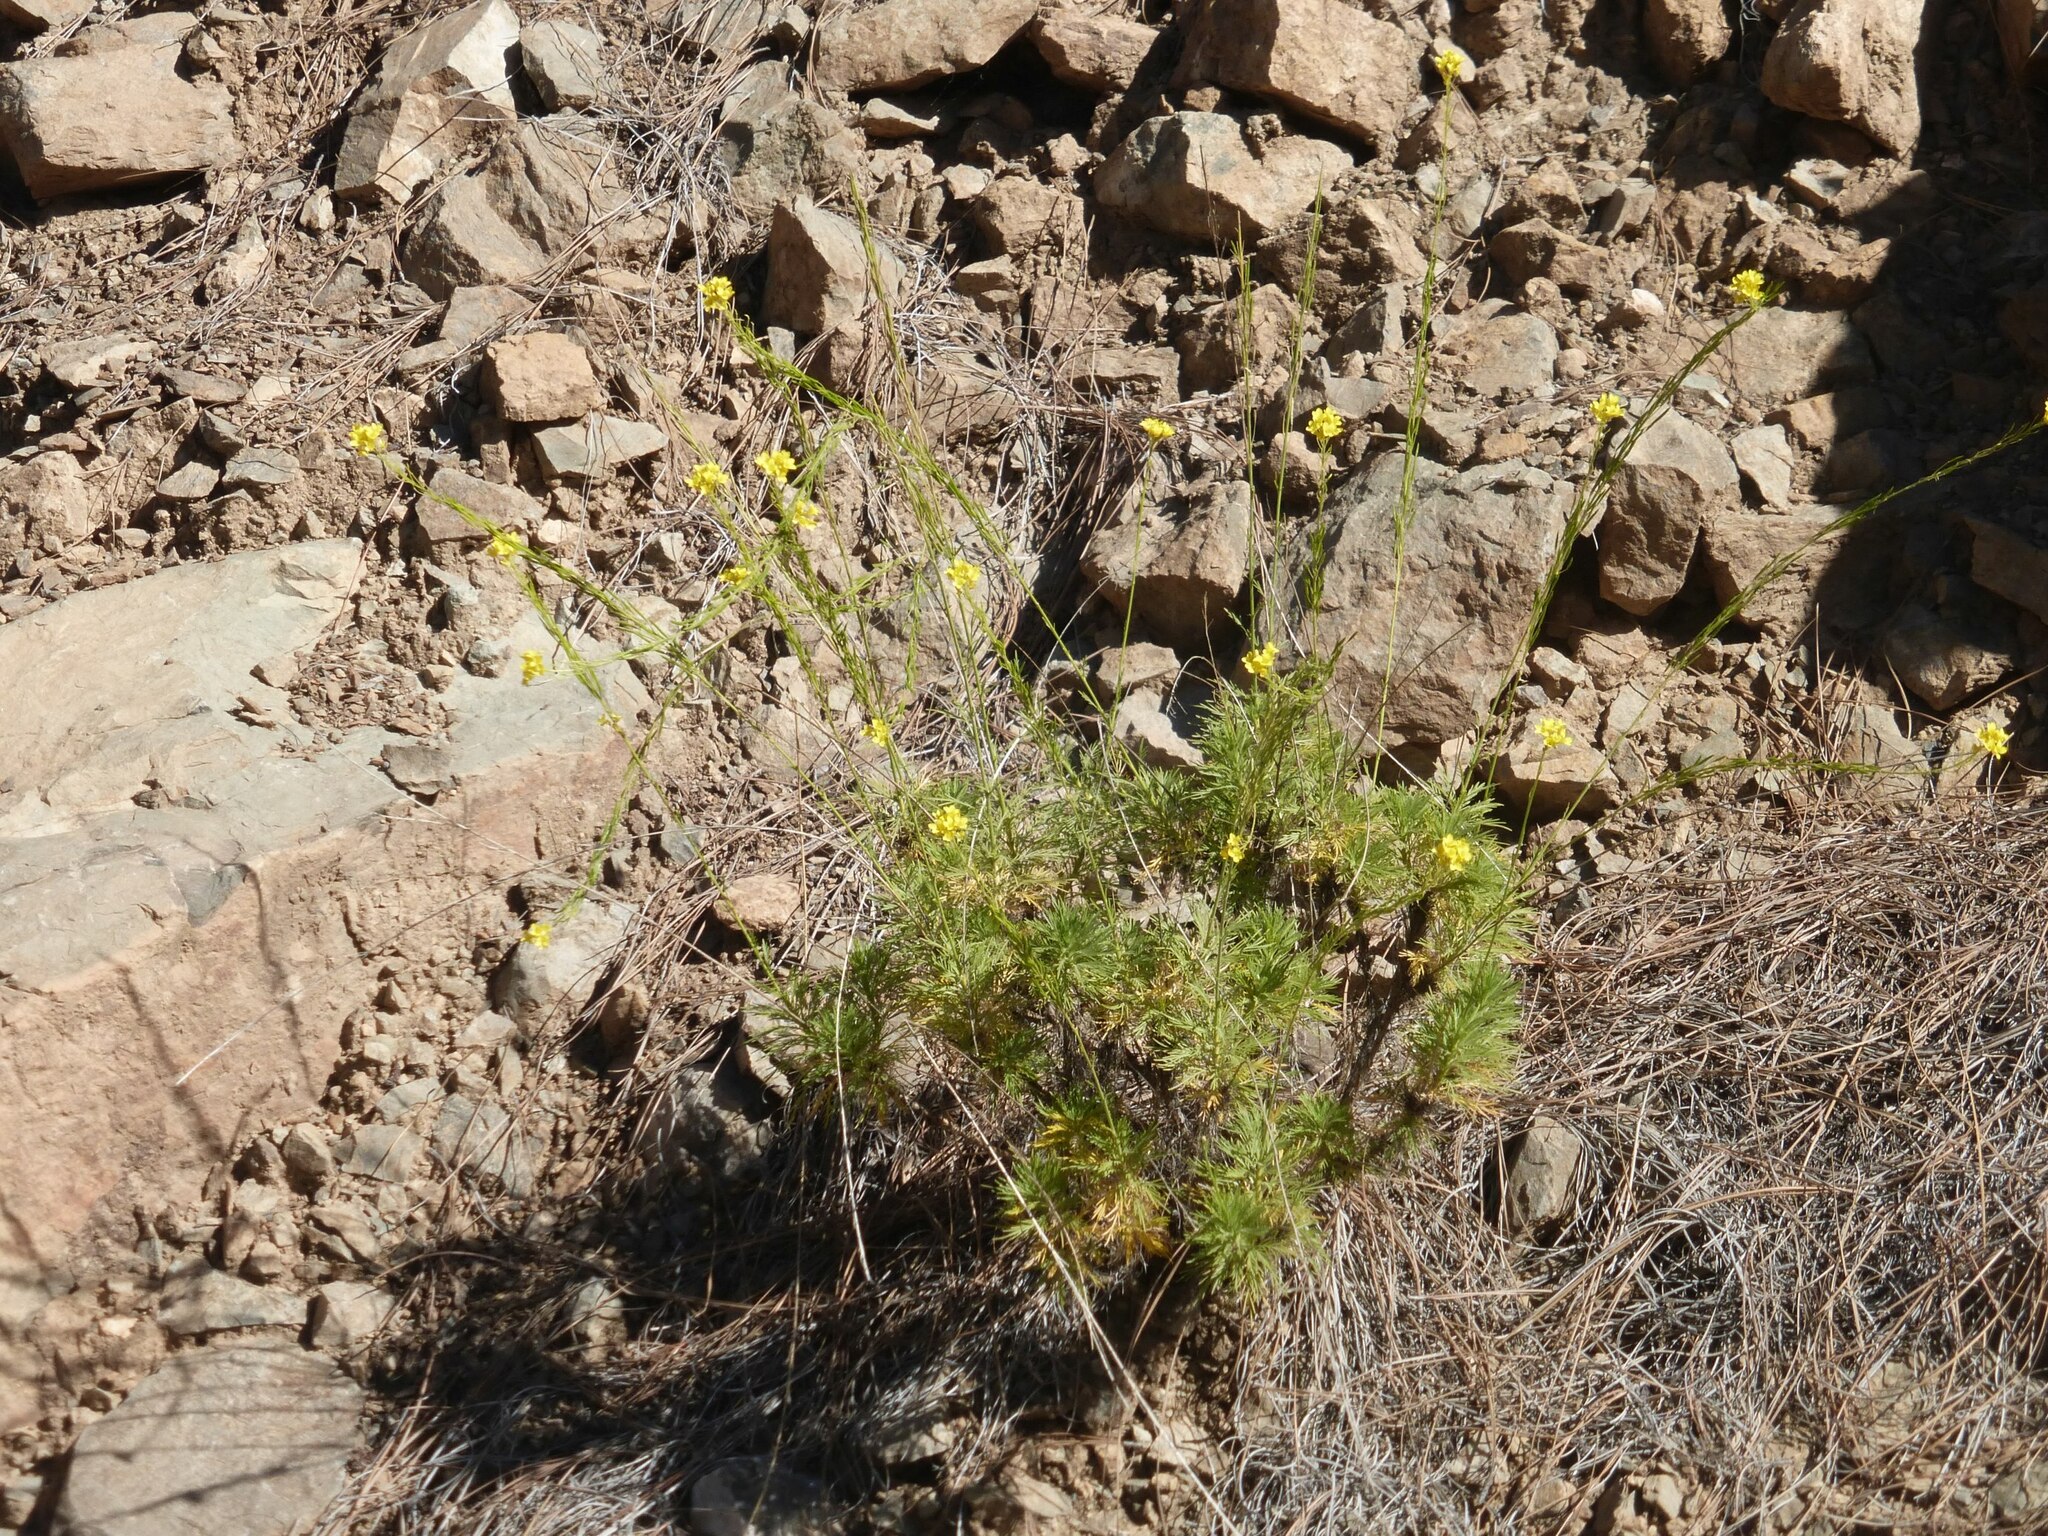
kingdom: Plantae
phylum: Tracheophyta
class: Magnoliopsida
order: Brassicales
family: Brassicaceae
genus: Descurainia
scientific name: Descurainia preauxiana
